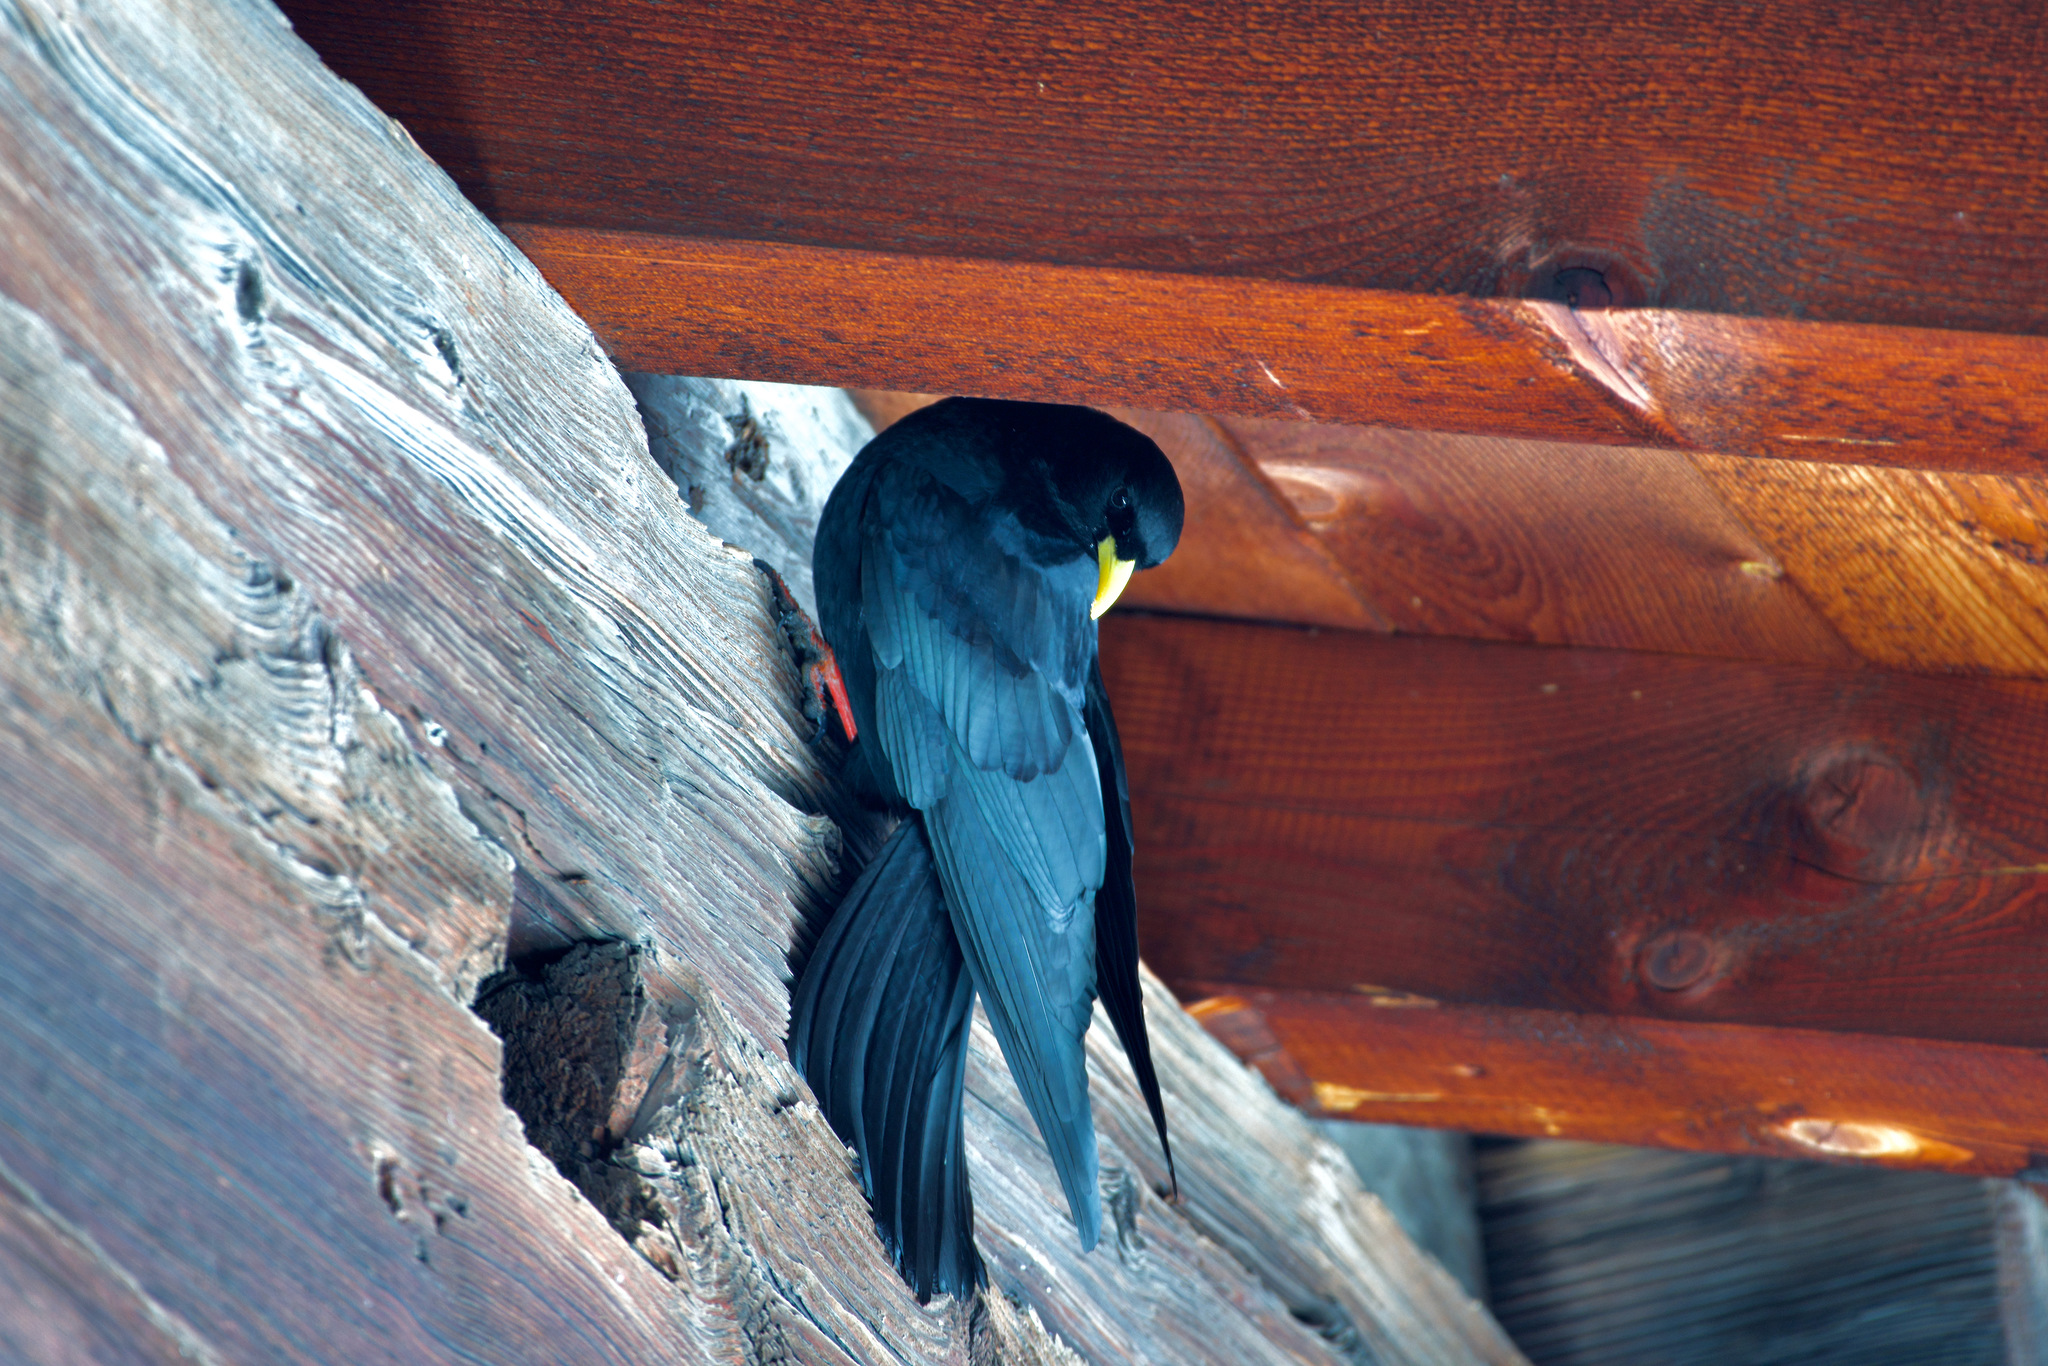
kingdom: Animalia
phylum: Chordata
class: Aves
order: Passeriformes
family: Corvidae
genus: Pyrrhocorax
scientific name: Pyrrhocorax graculus
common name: Alpine chough
